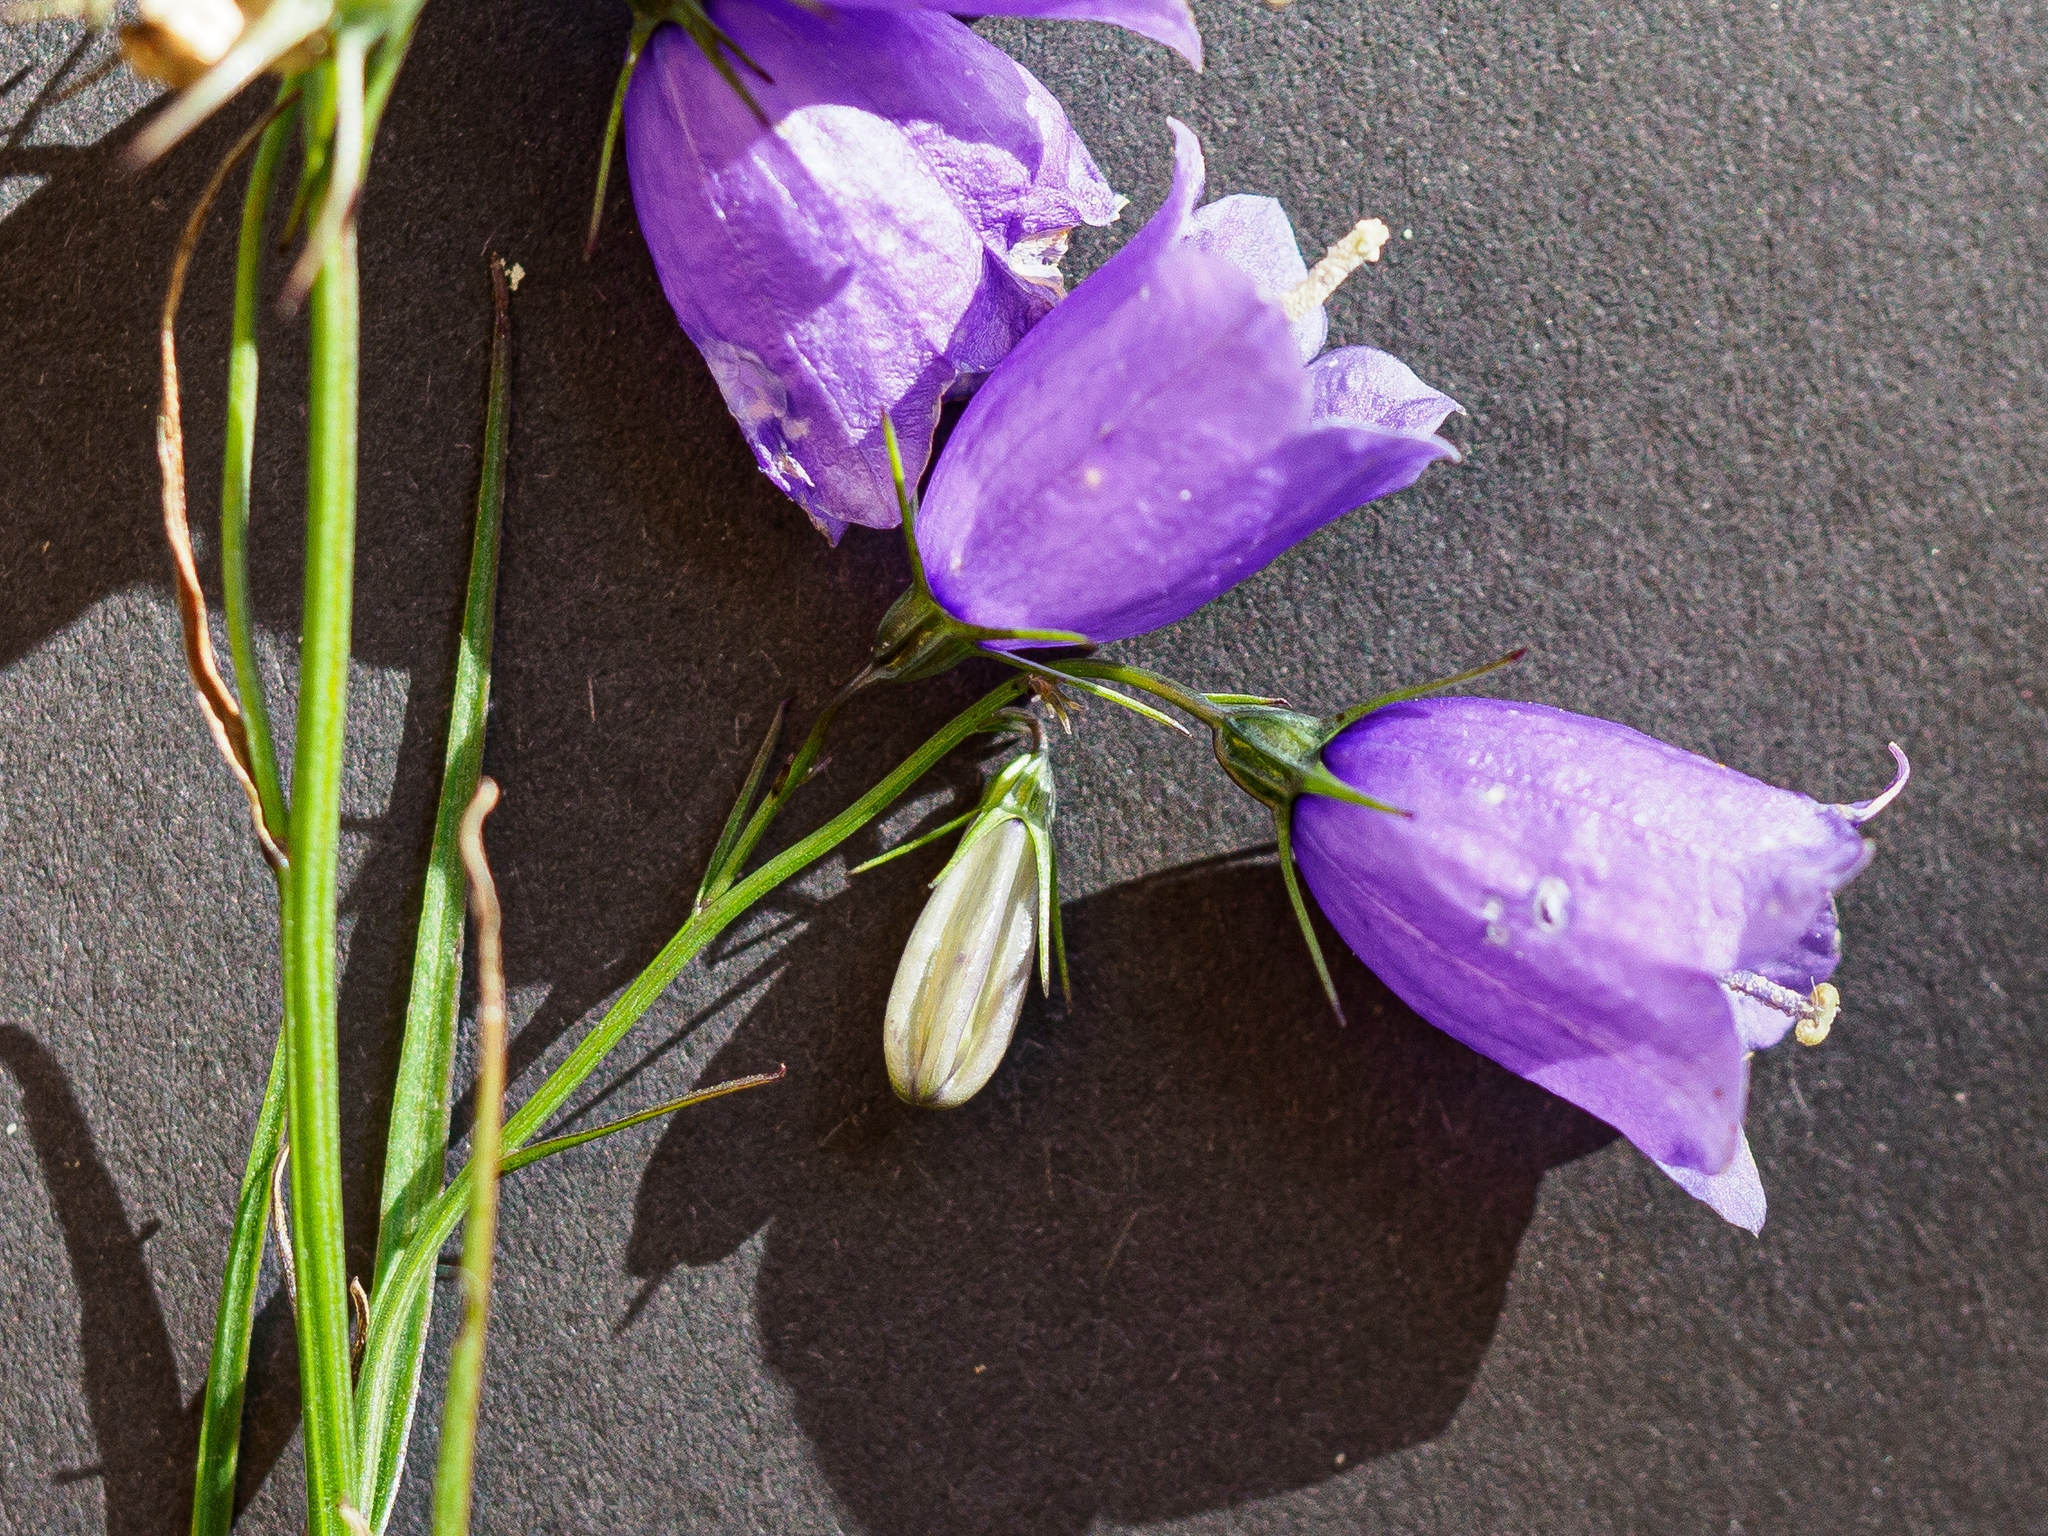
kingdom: Plantae
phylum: Tracheophyta
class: Magnoliopsida
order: Asterales
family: Campanulaceae
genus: Campanula
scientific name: Campanula witasekiana
